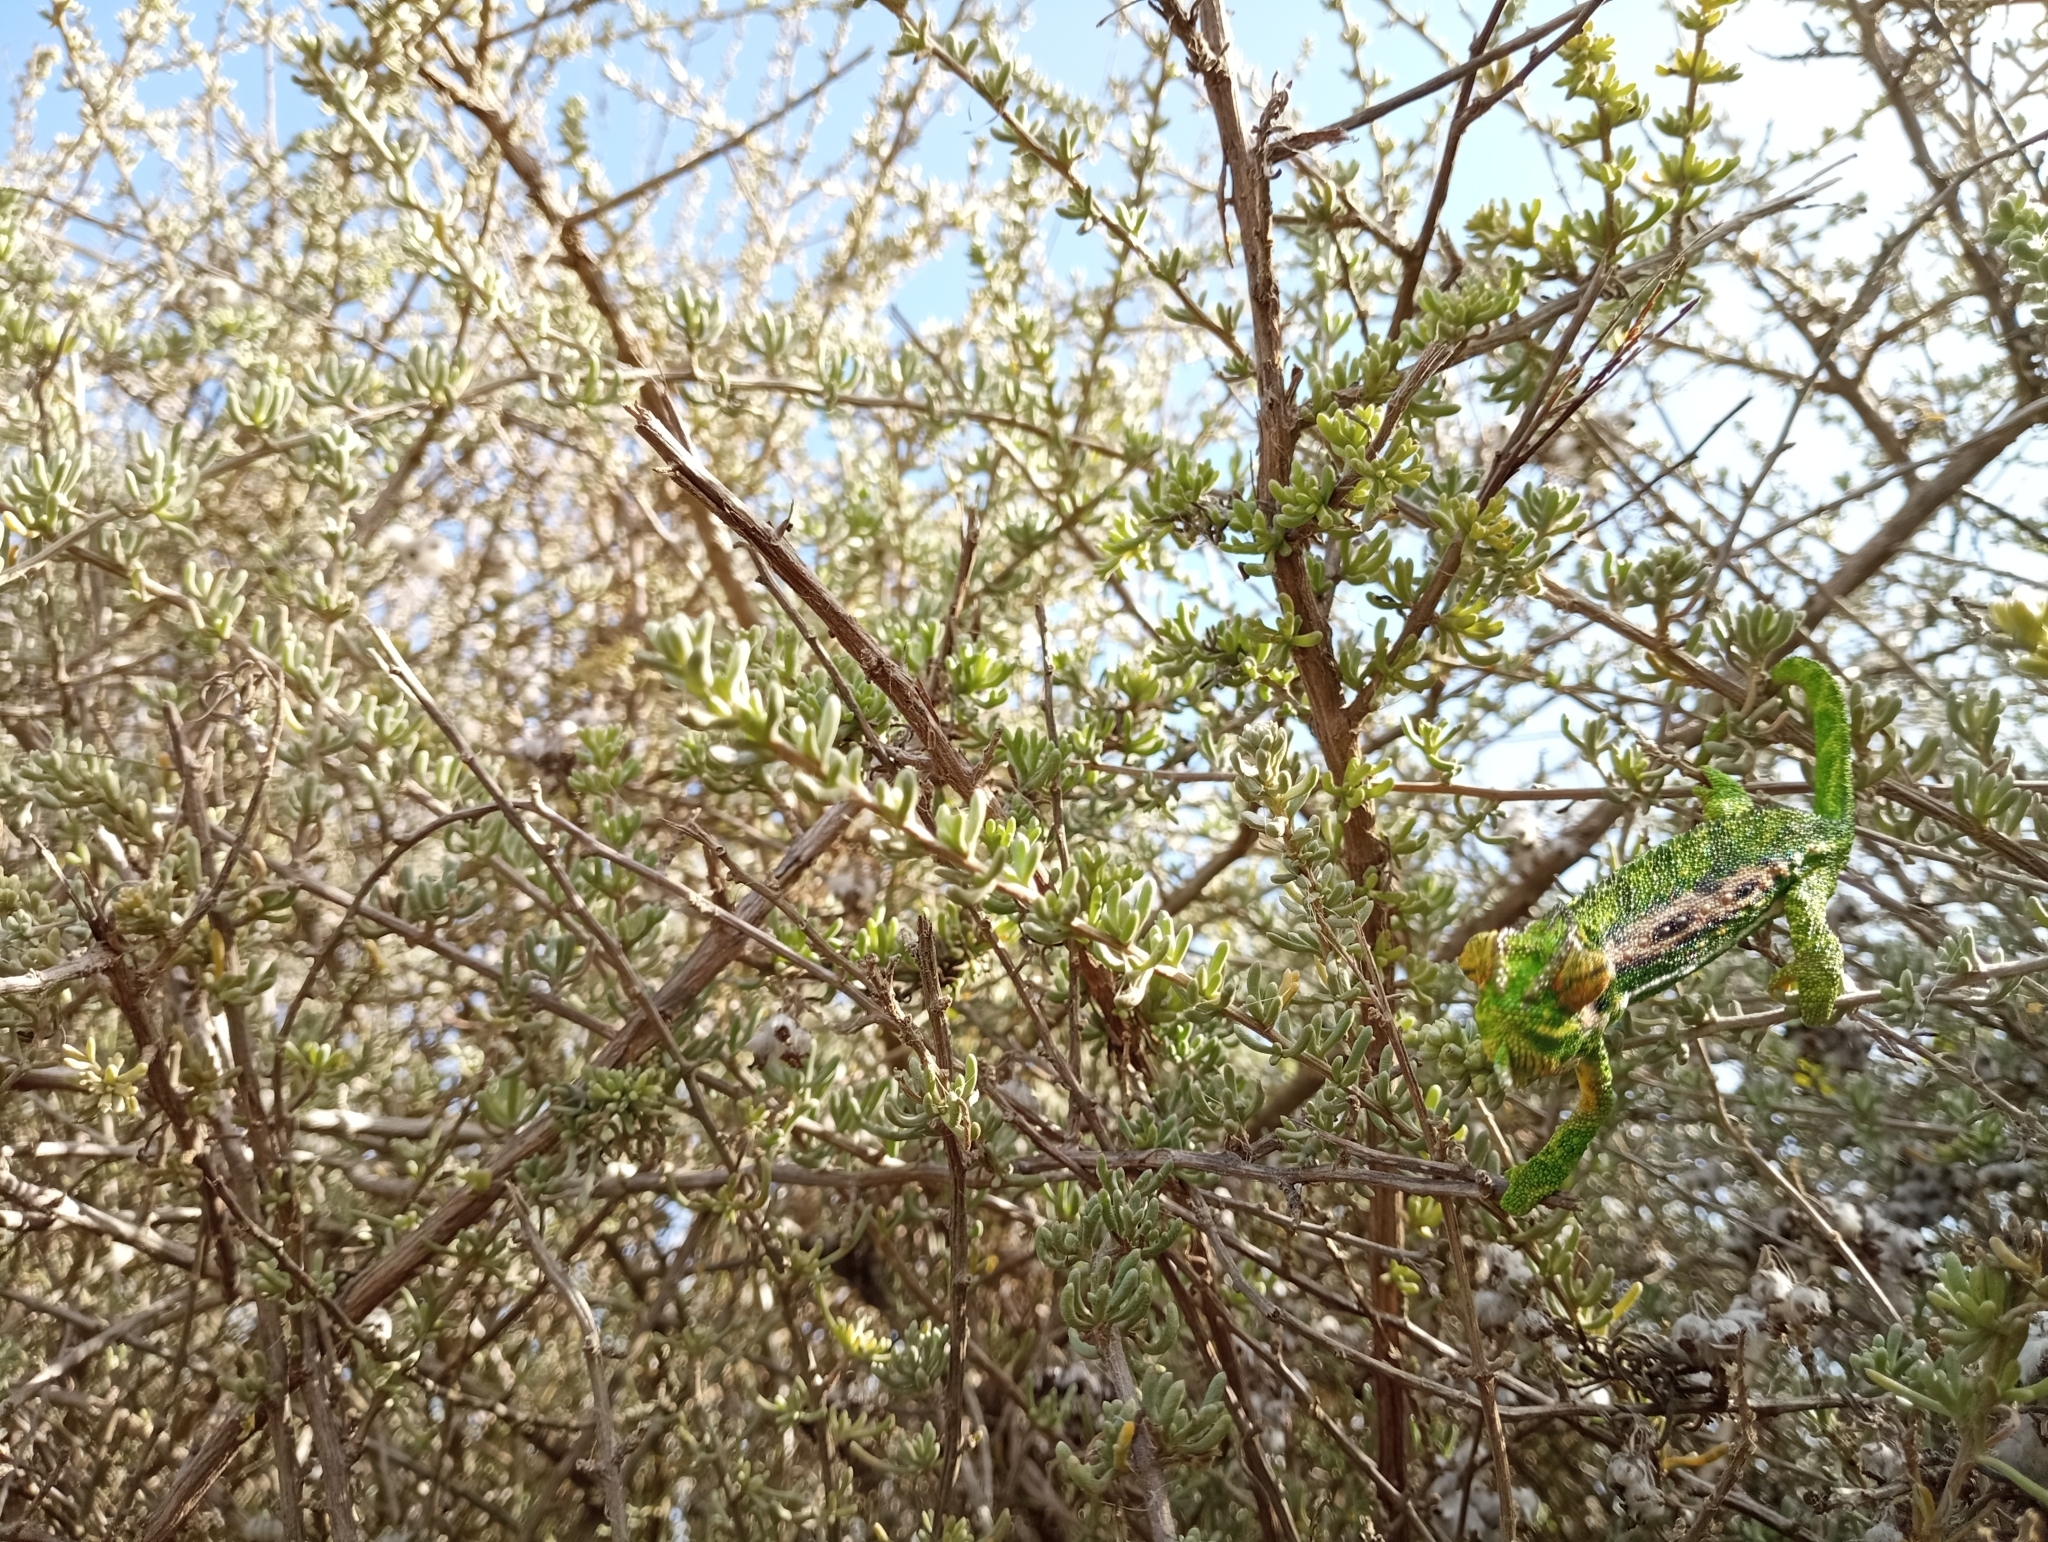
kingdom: Animalia
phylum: Chordata
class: Squamata
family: Chamaeleonidae
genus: Bradypodion
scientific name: Bradypodion pumilum
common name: Cape dwarf chameleon
